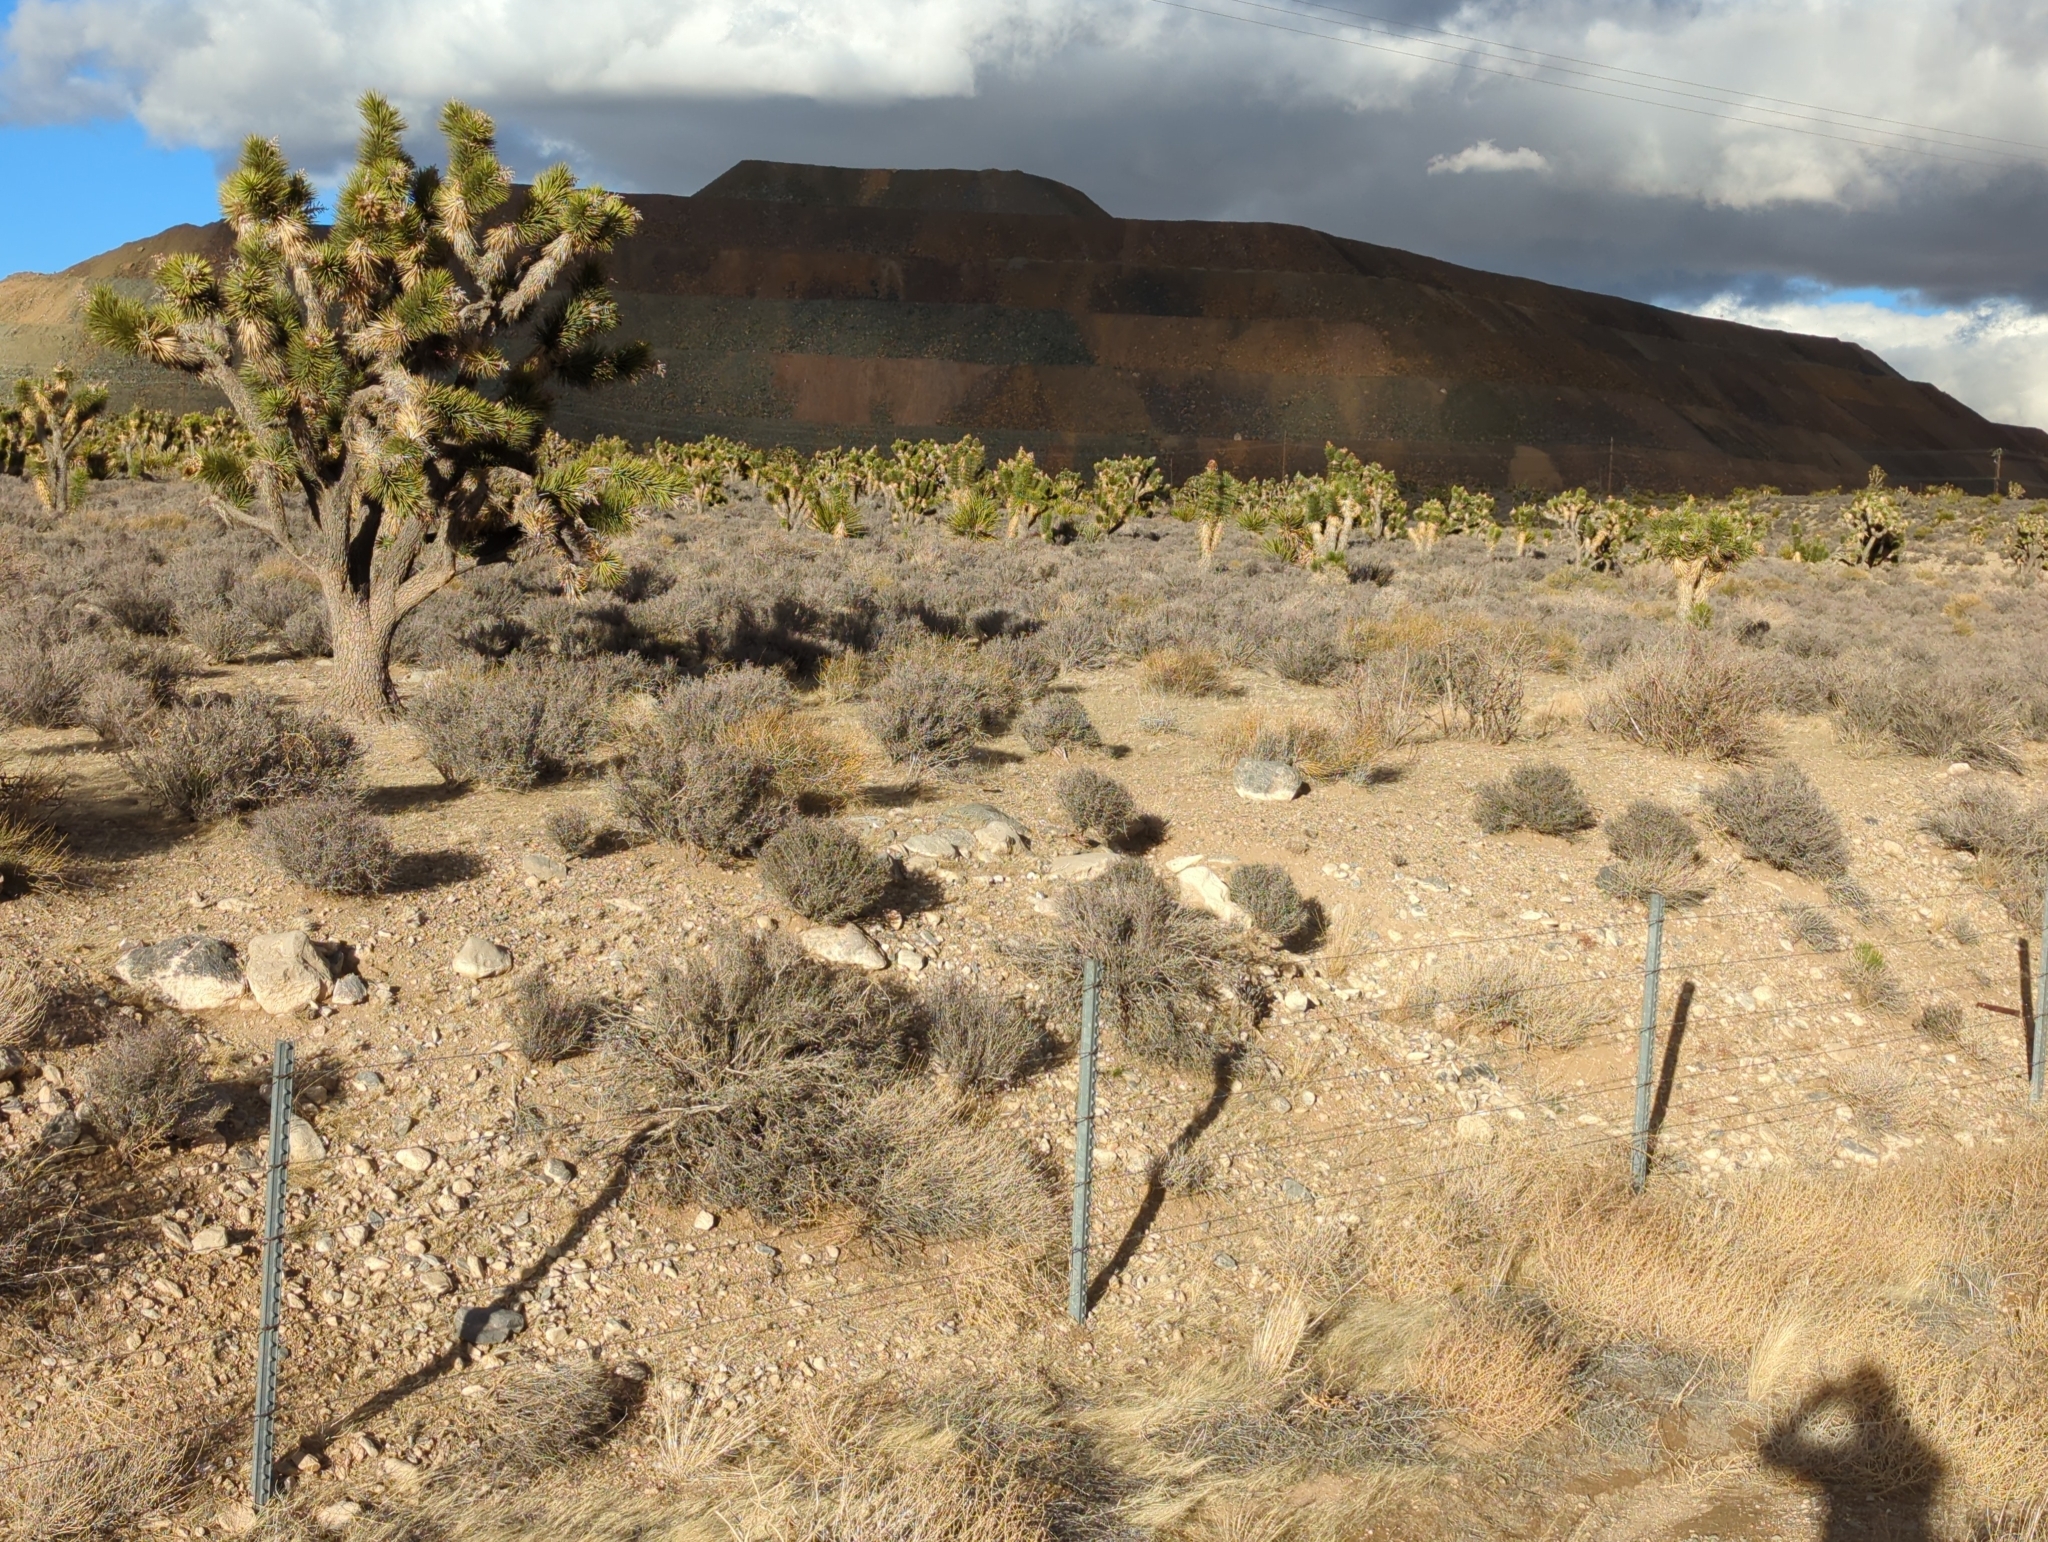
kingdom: Plantae
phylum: Tracheophyta
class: Liliopsida
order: Asparagales
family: Asparagaceae
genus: Yucca
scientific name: Yucca brevifolia
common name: Joshua tree
